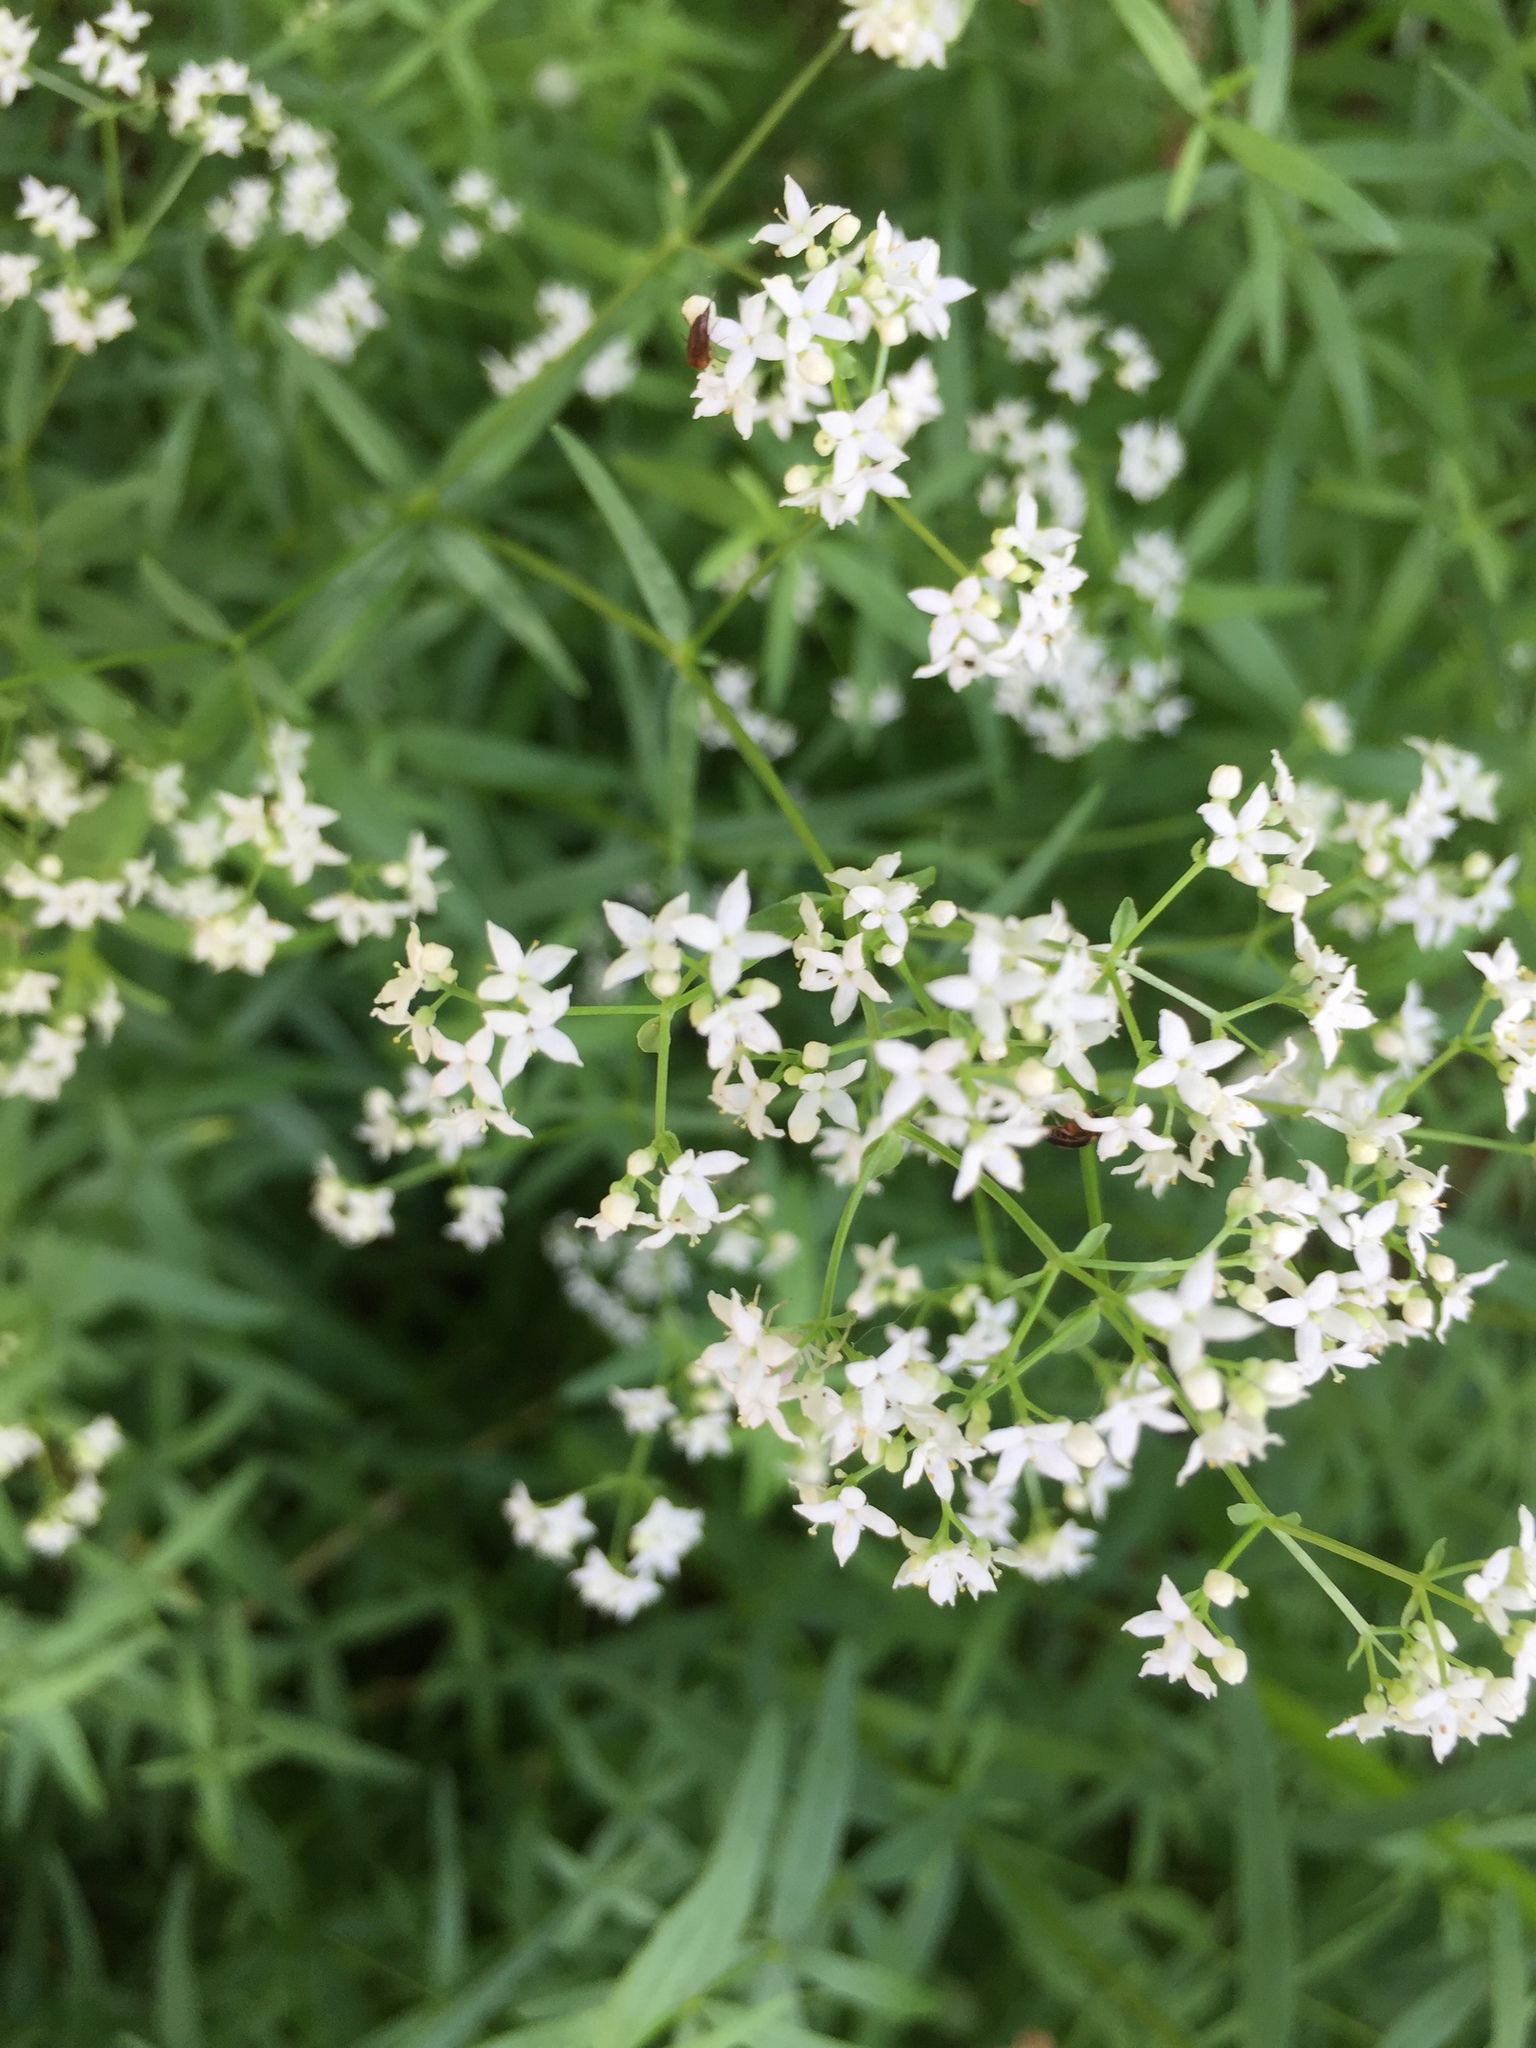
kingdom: Plantae
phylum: Tracheophyta
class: Magnoliopsida
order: Gentianales
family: Rubiaceae
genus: Galium
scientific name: Galium boreale
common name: Northern bedstraw
